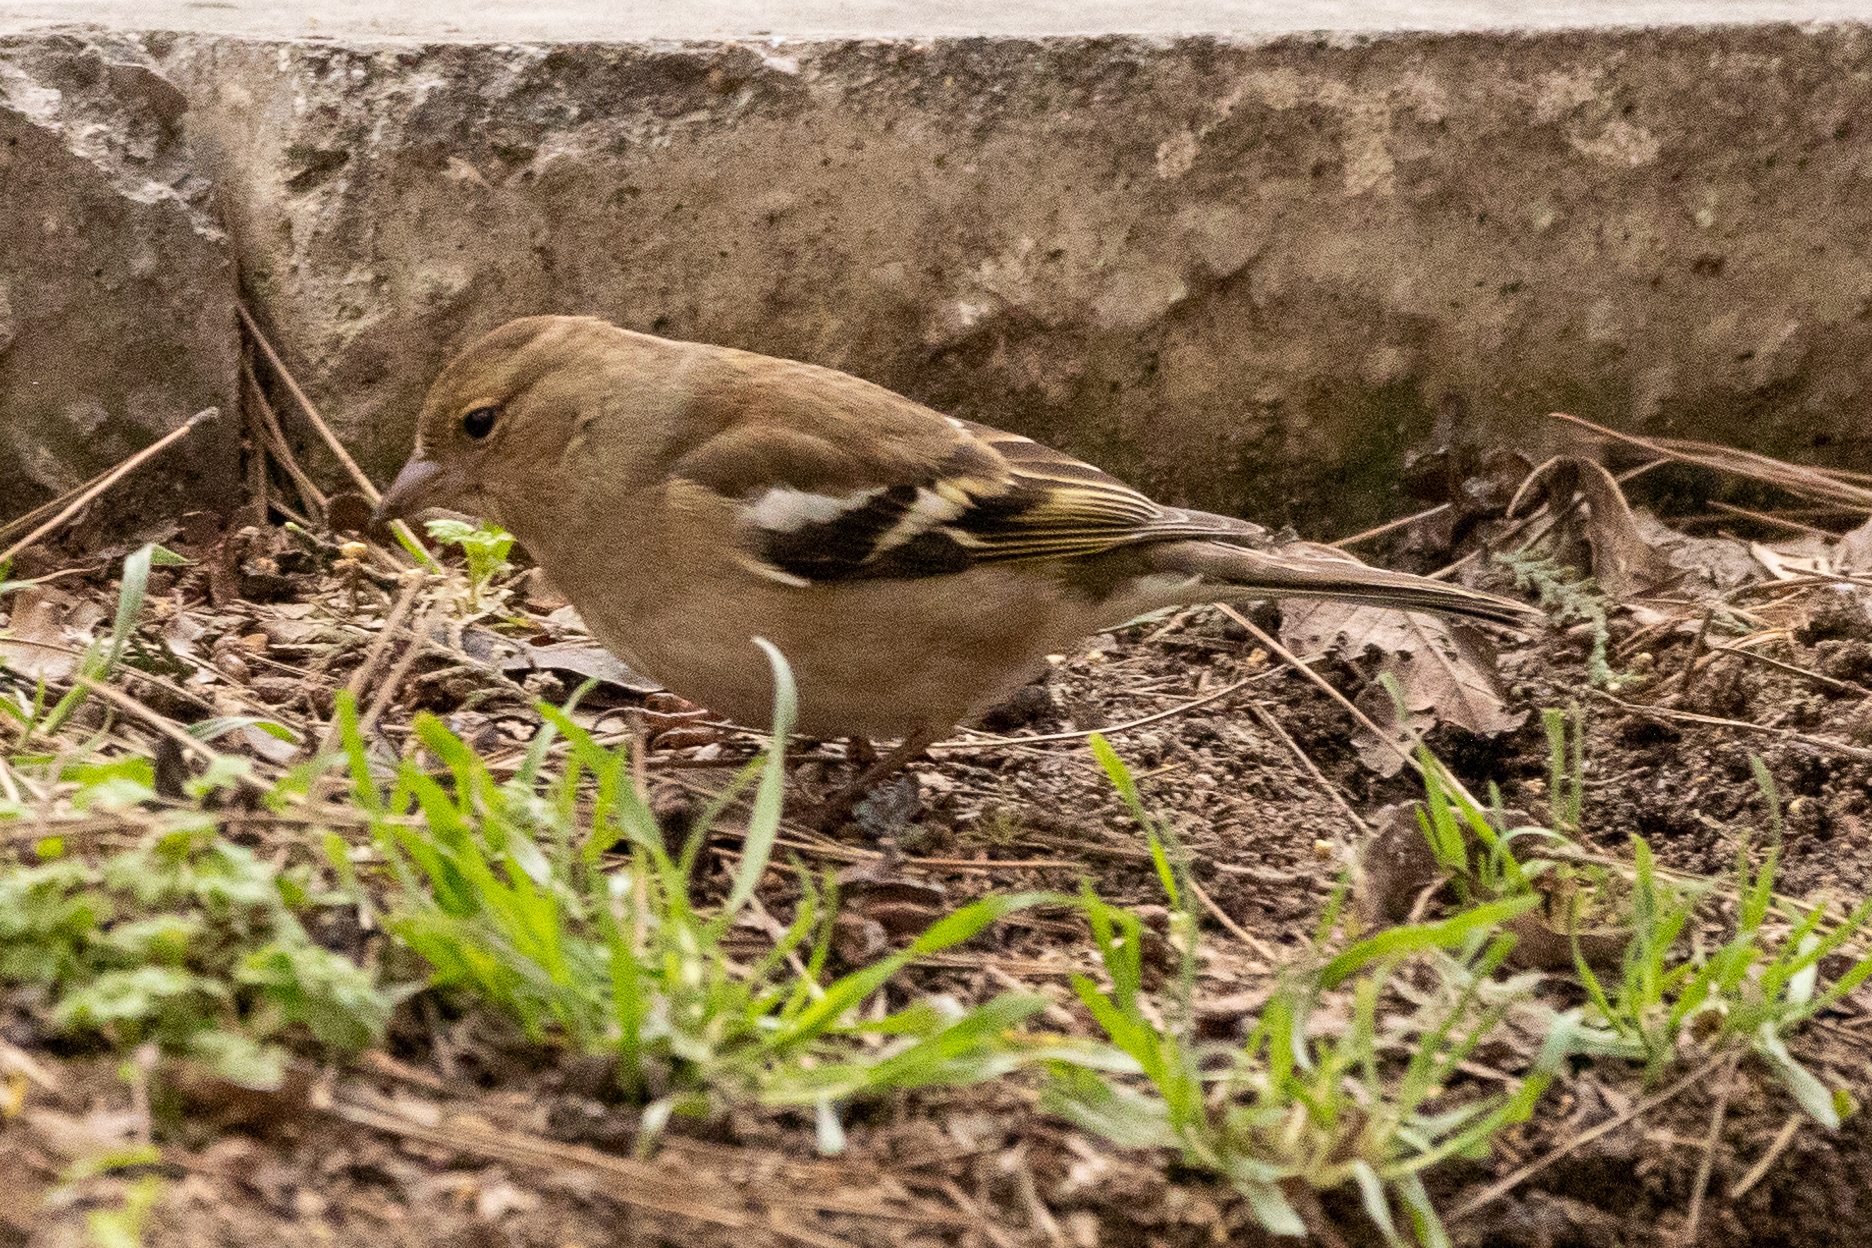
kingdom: Animalia
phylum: Chordata
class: Aves
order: Passeriformes
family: Fringillidae
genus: Fringilla
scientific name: Fringilla coelebs
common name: Common chaffinch
